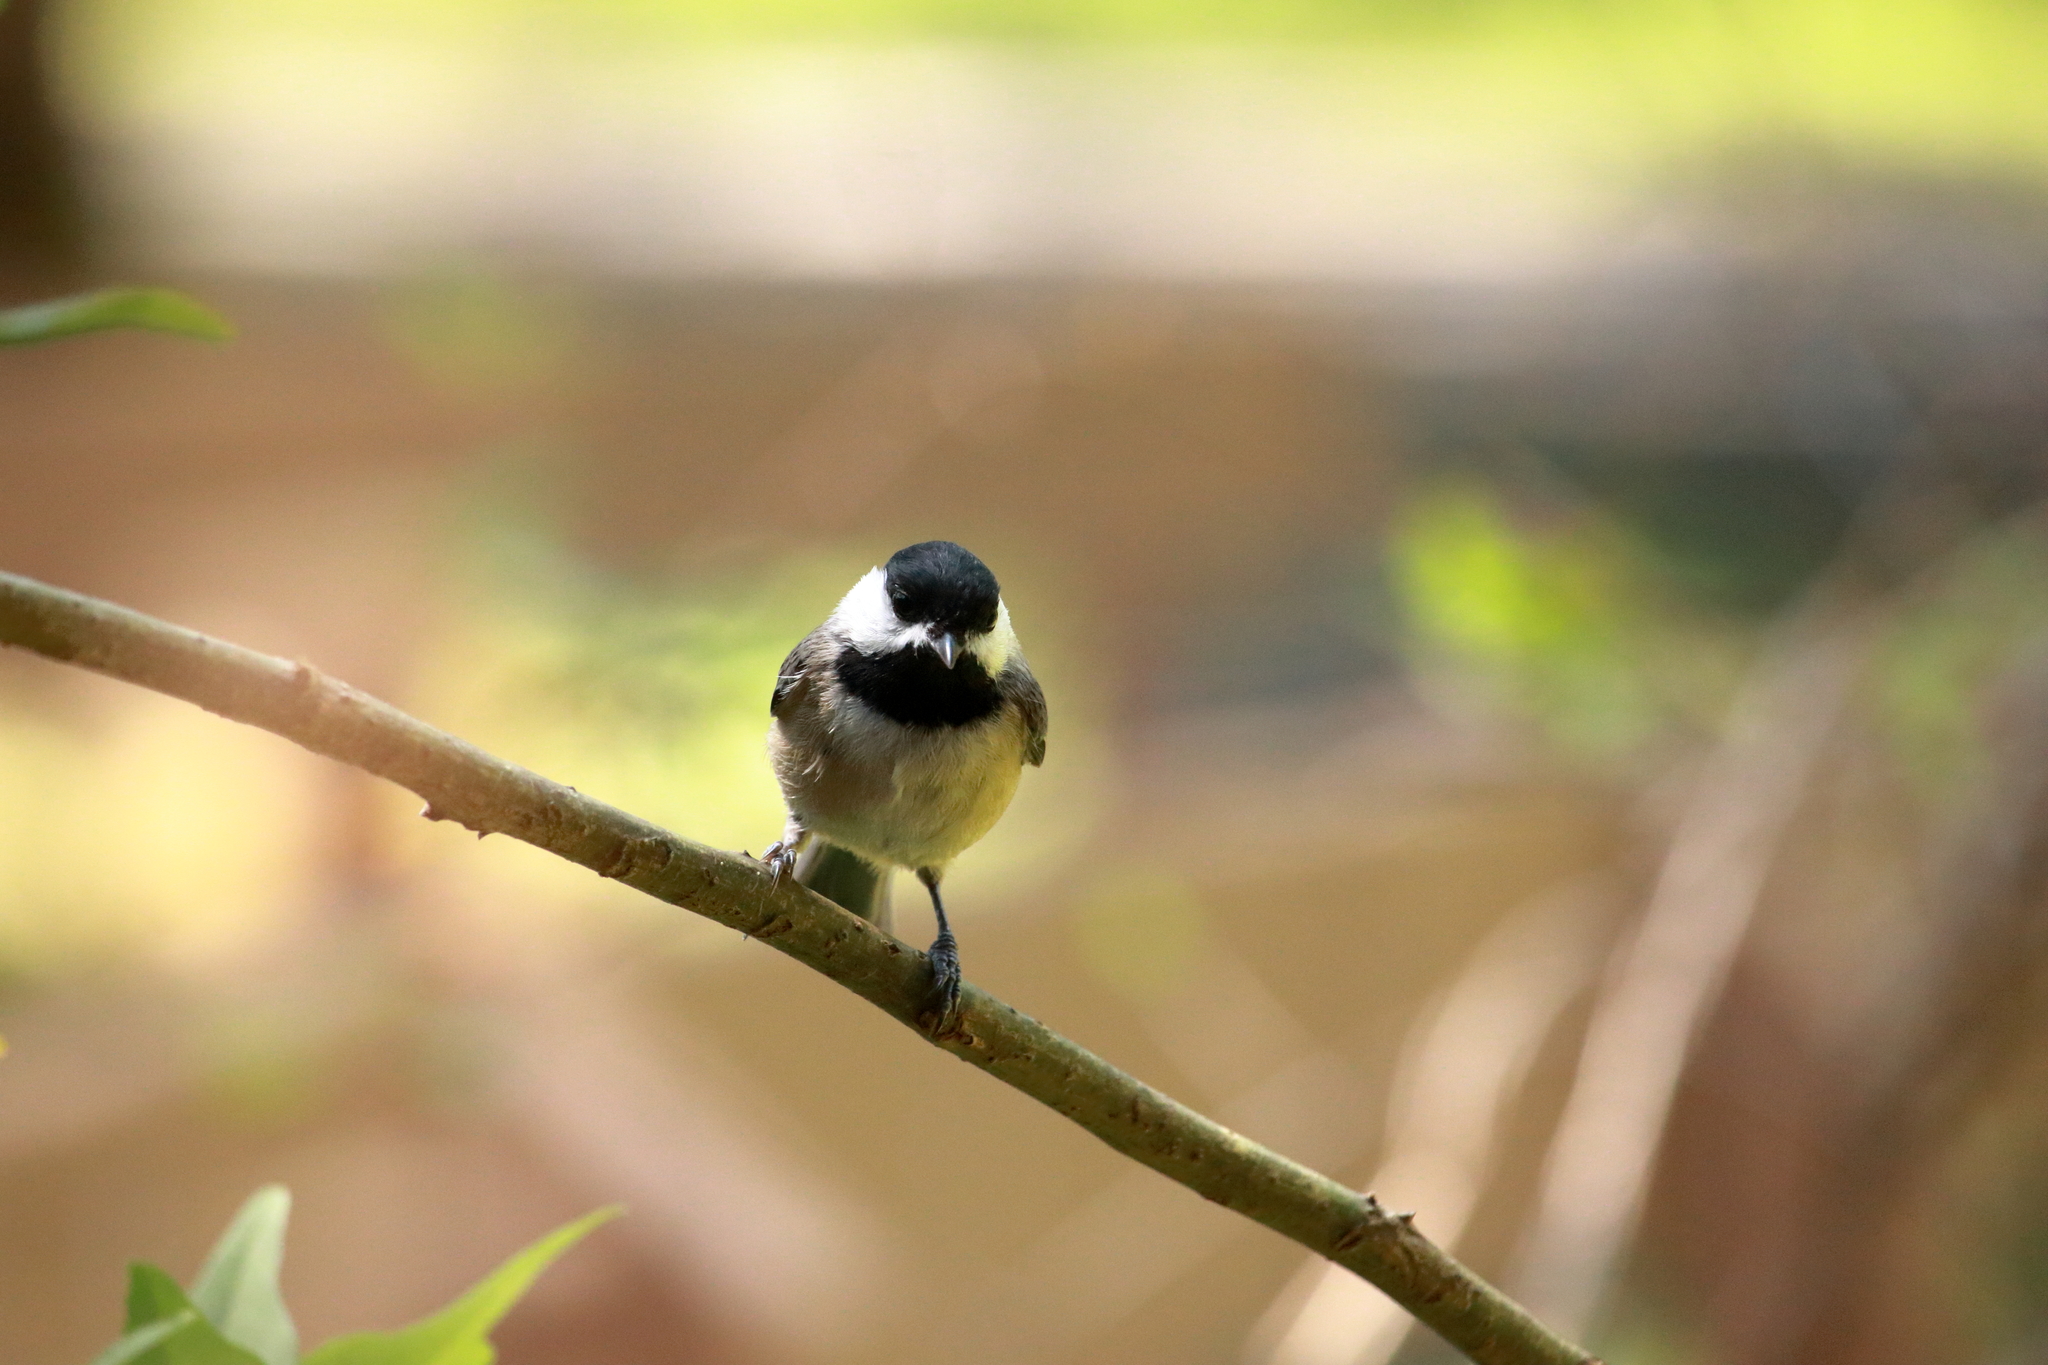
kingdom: Animalia
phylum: Chordata
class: Aves
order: Passeriformes
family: Paridae
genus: Poecile
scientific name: Poecile carolinensis
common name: Carolina chickadee
